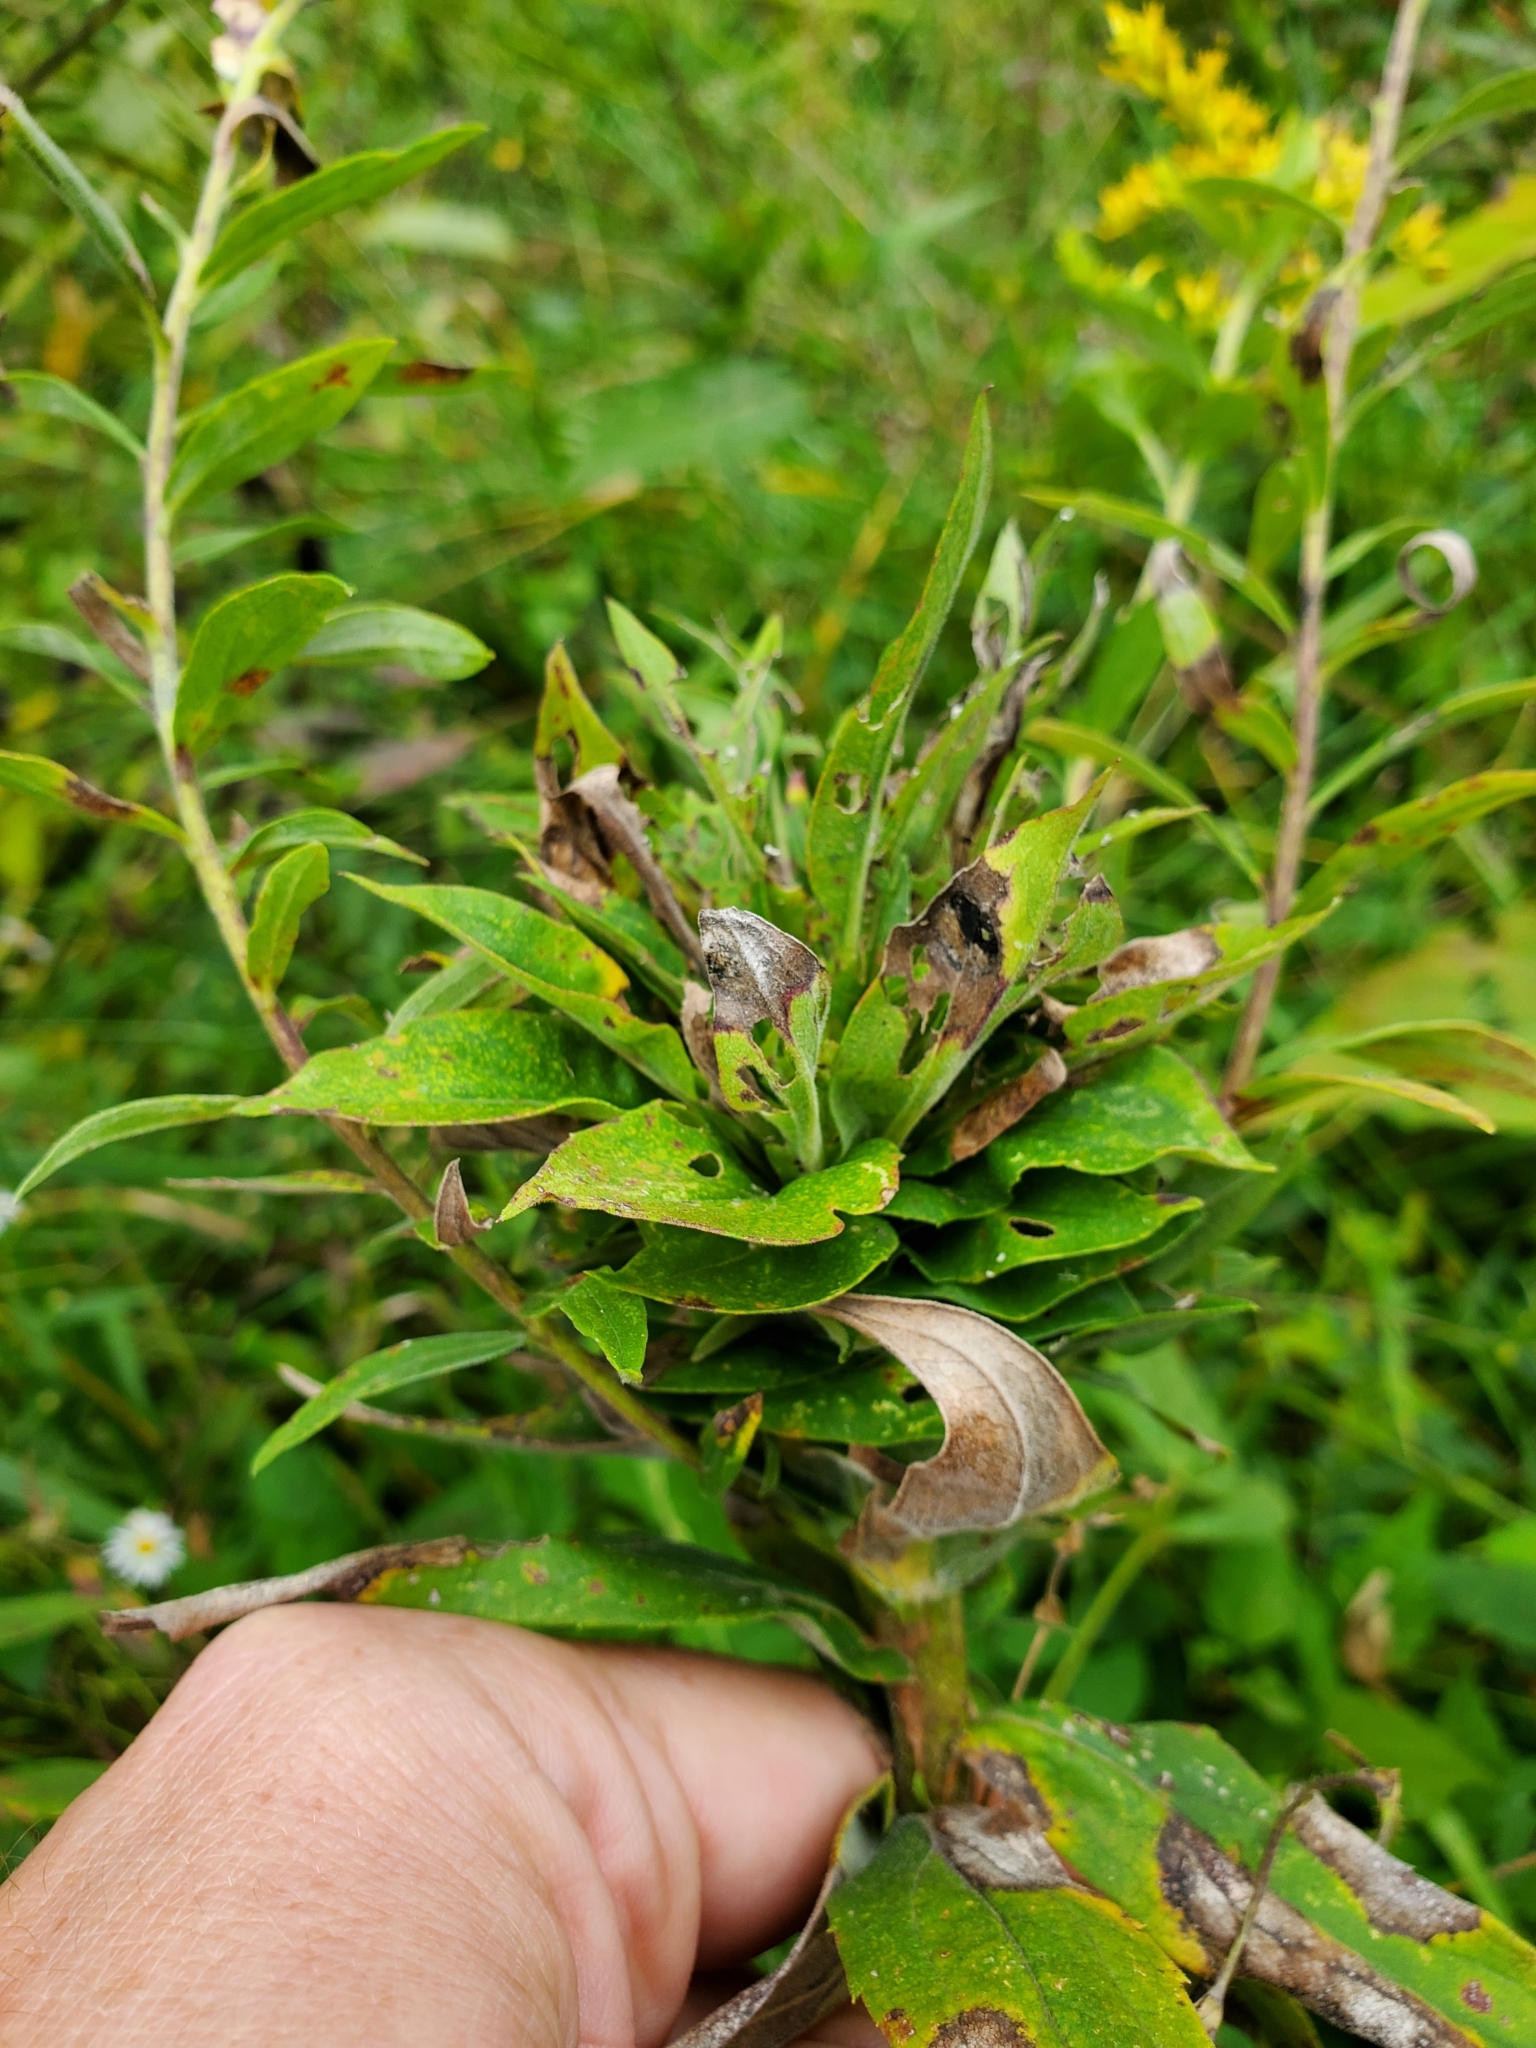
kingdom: Animalia
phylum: Arthropoda
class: Insecta
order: Diptera
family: Cecidomyiidae
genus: Rhopalomyia
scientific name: Rhopalomyia solidaginis
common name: Goldenrod bunch gall midge
